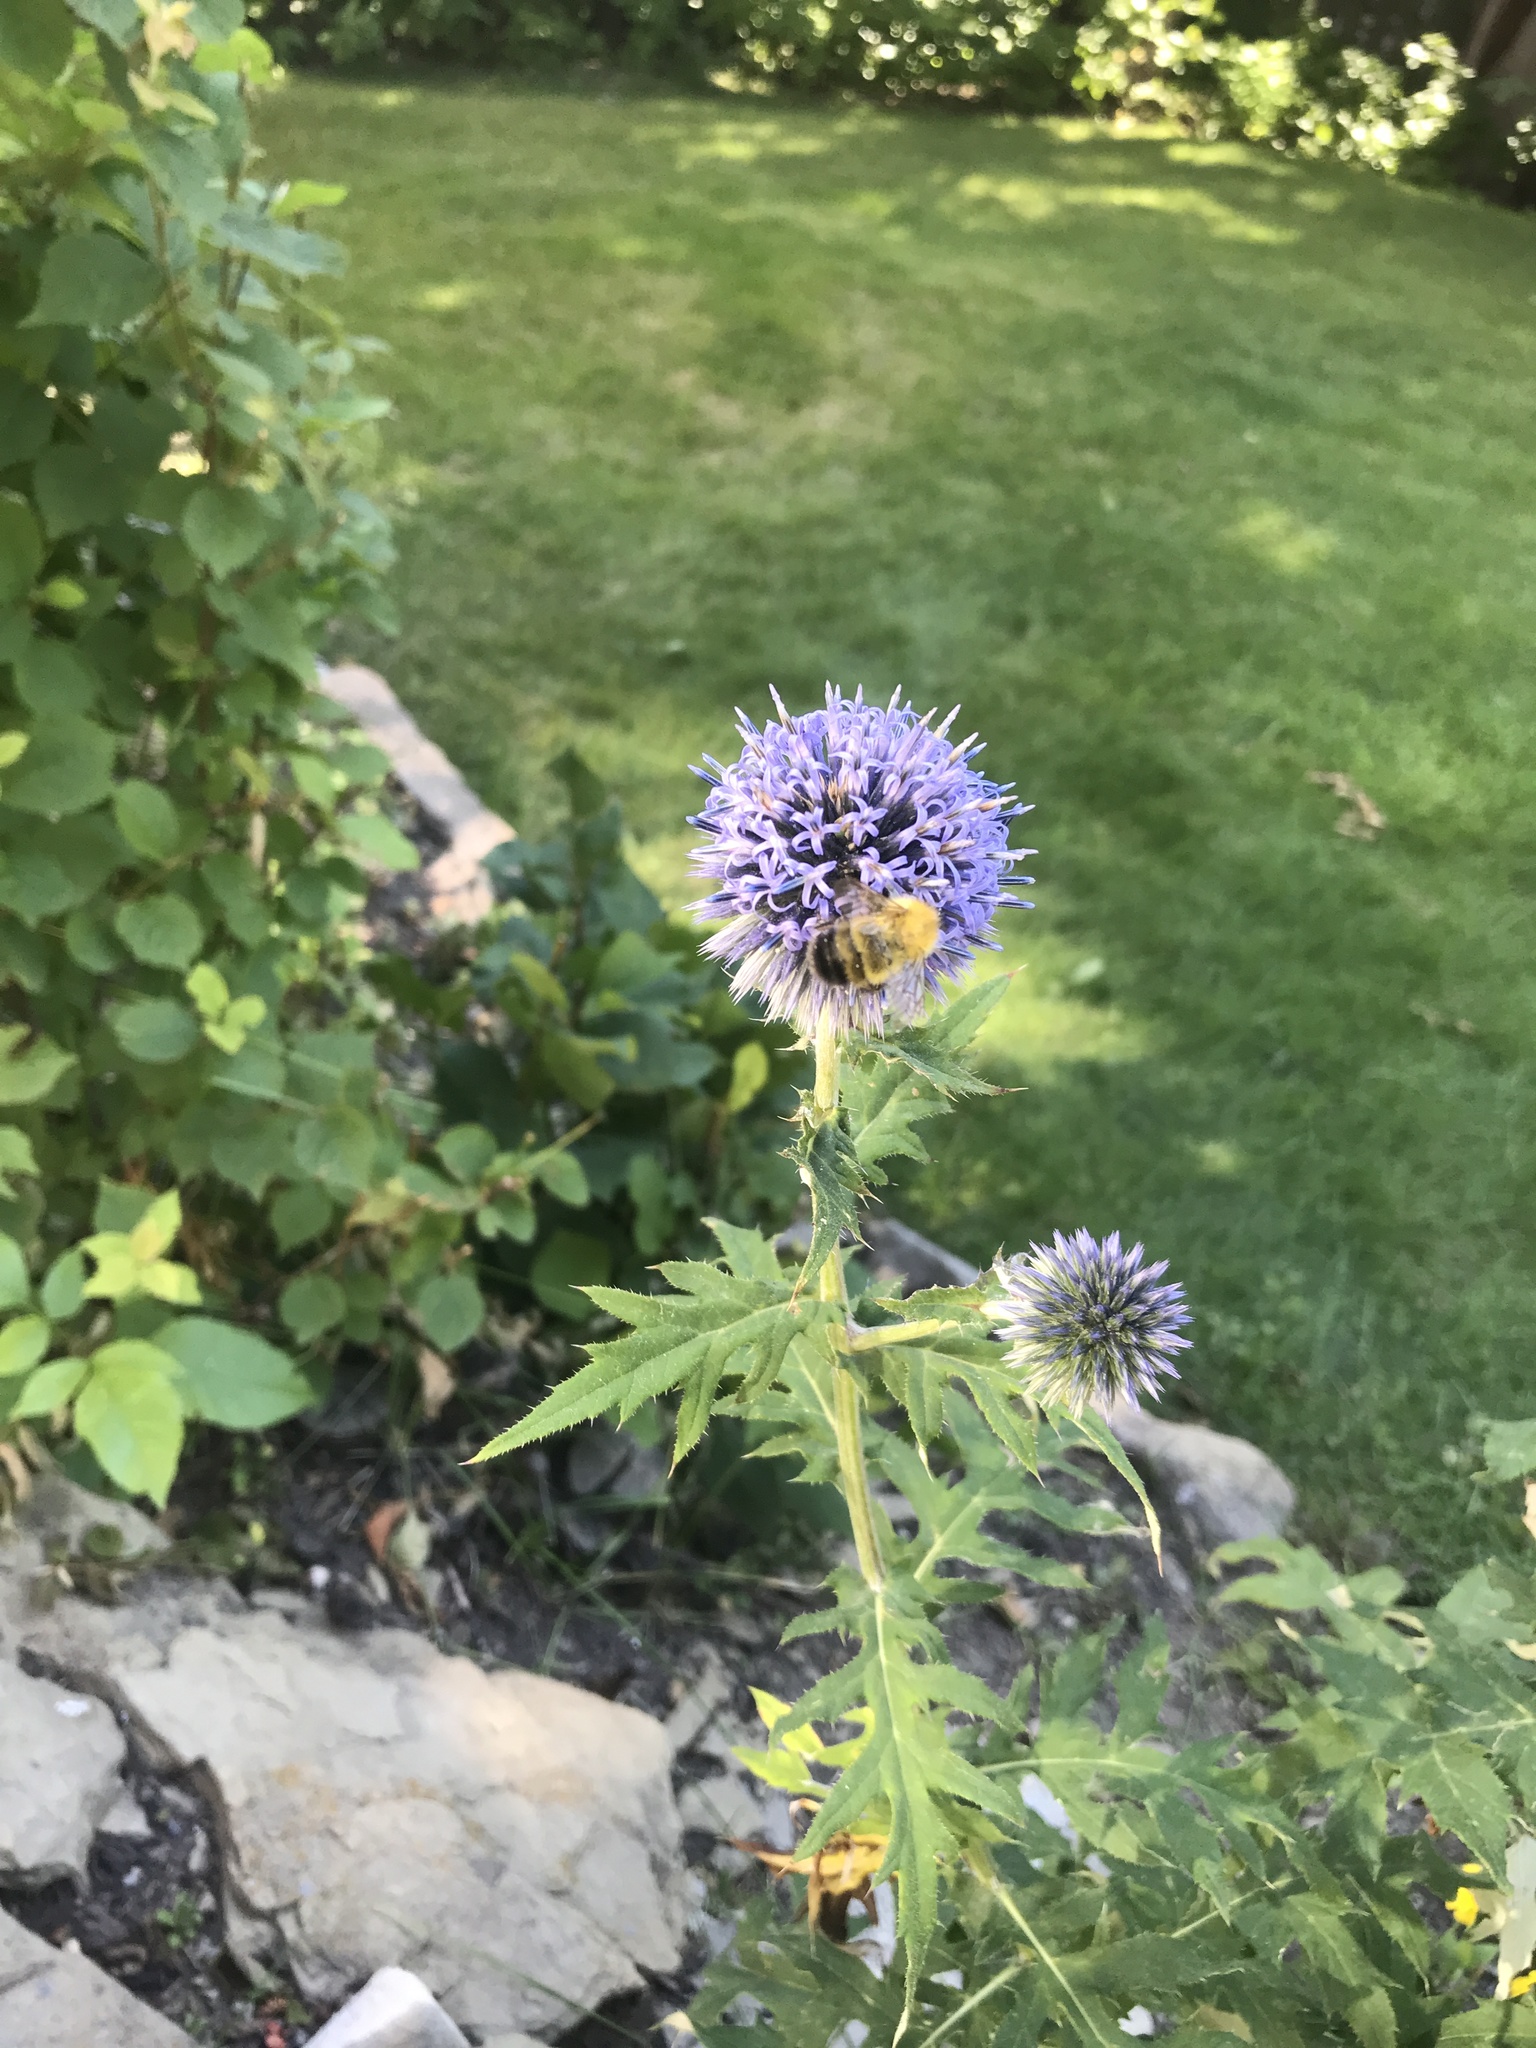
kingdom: Animalia
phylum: Arthropoda
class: Insecta
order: Hymenoptera
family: Apidae
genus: Bombus
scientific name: Bombus perplexus
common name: Confusing bumble bee
